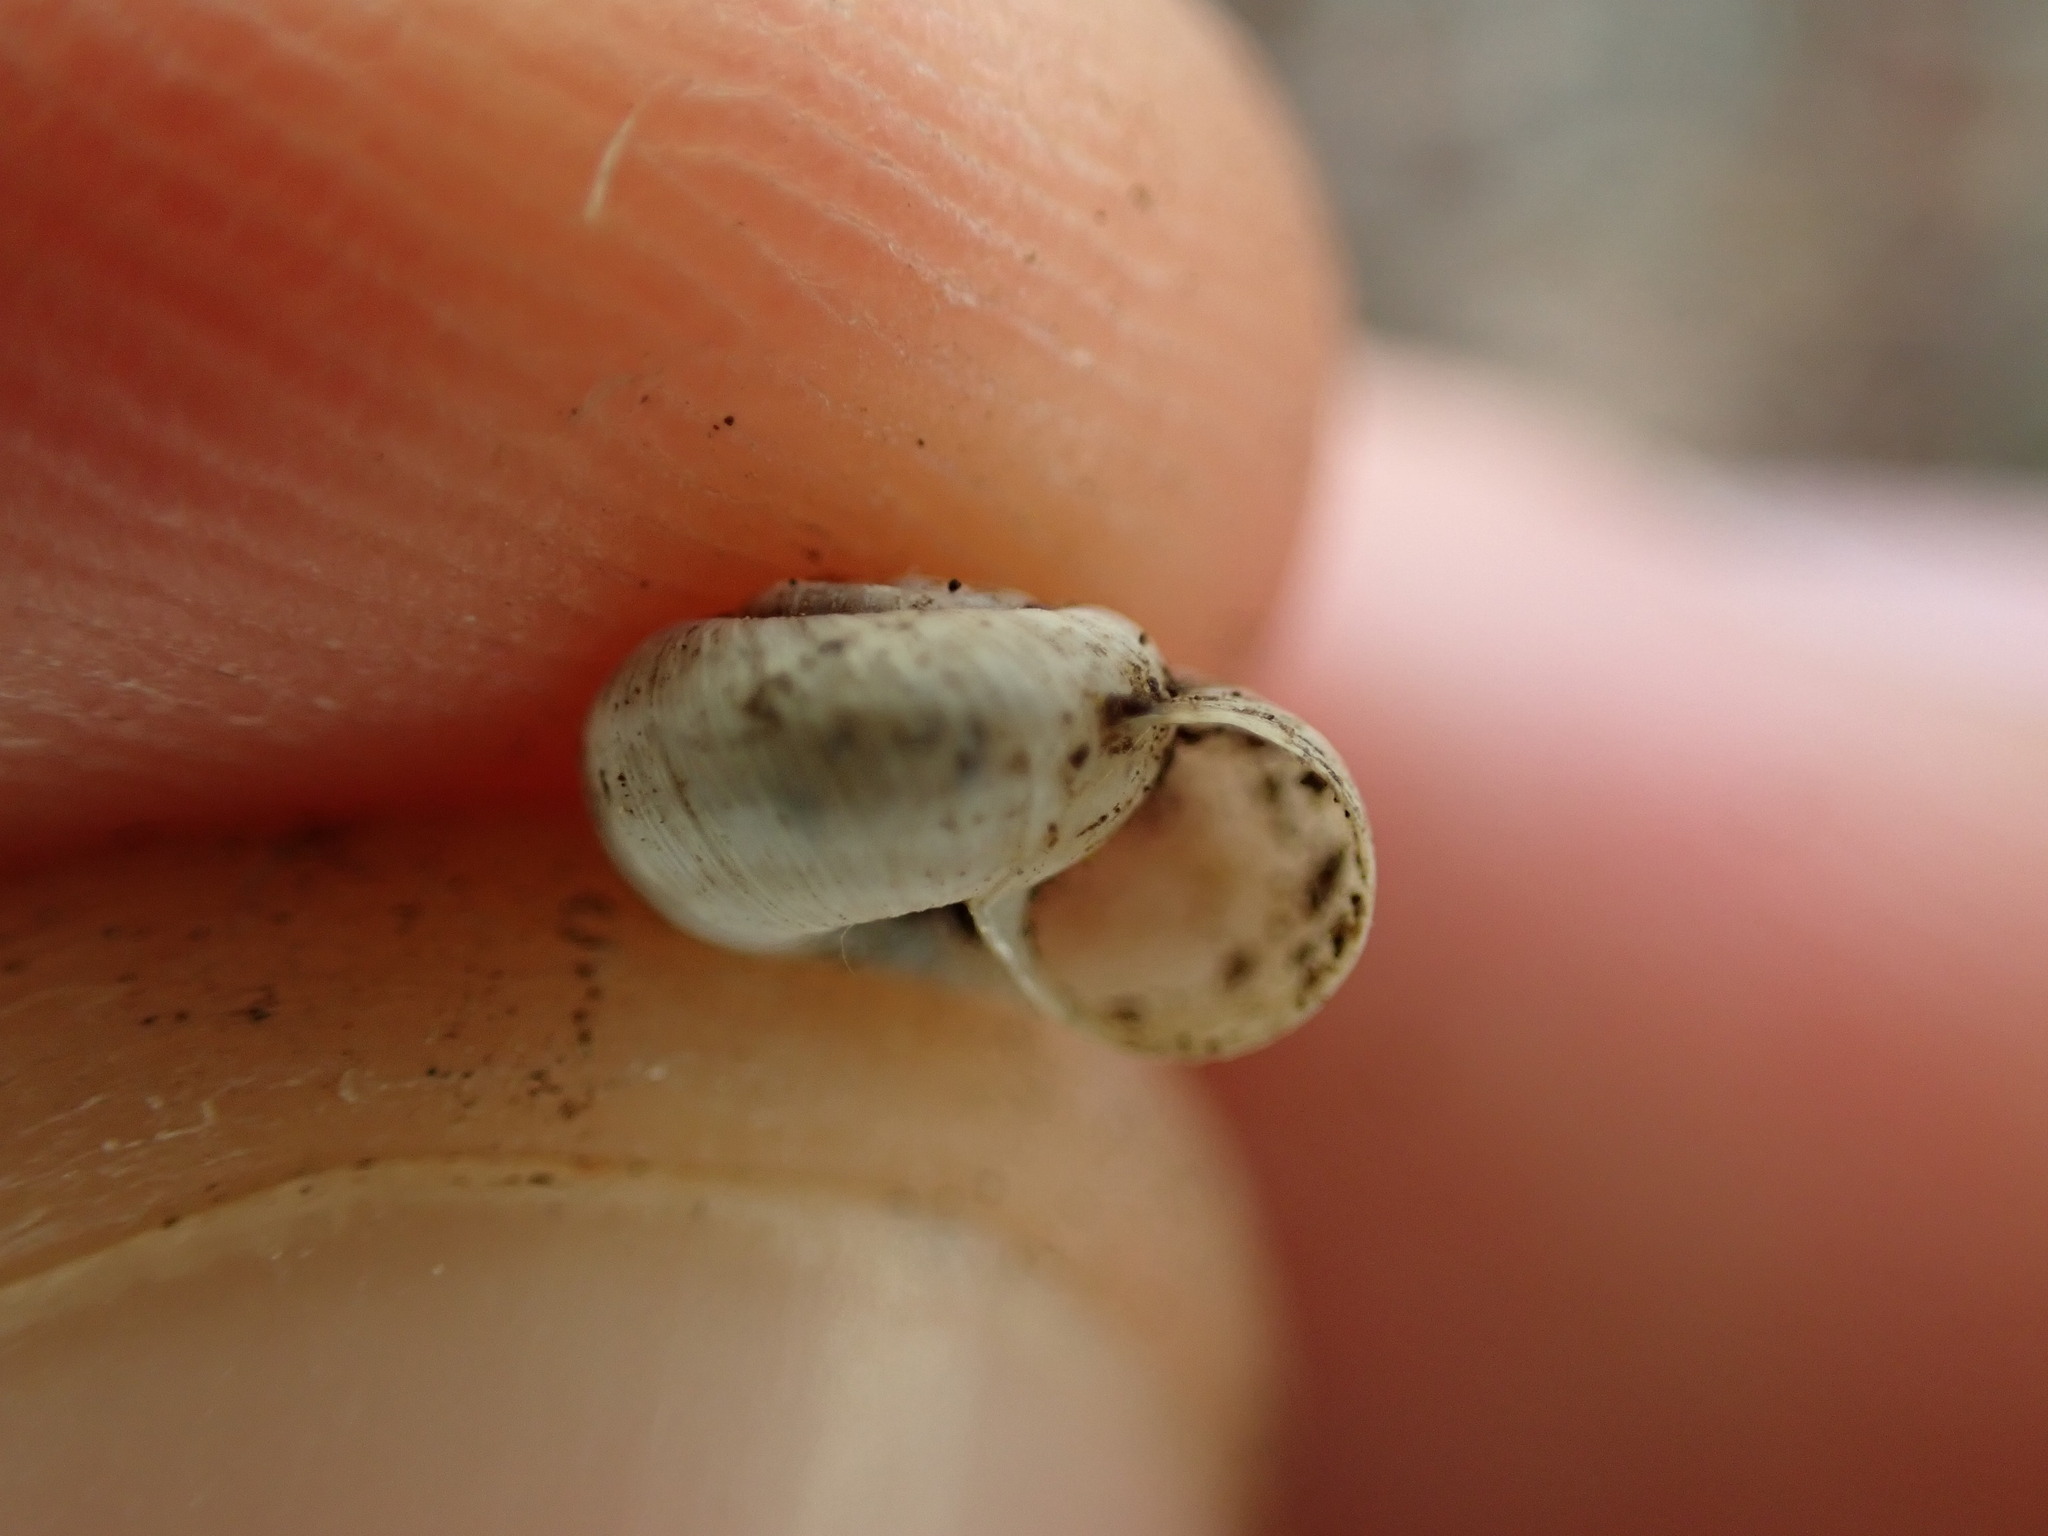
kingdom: Animalia
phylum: Mollusca
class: Gastropoda
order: Stylommatophora
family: Geomitridae
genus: Xerotricha
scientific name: Xerotricha apicina
